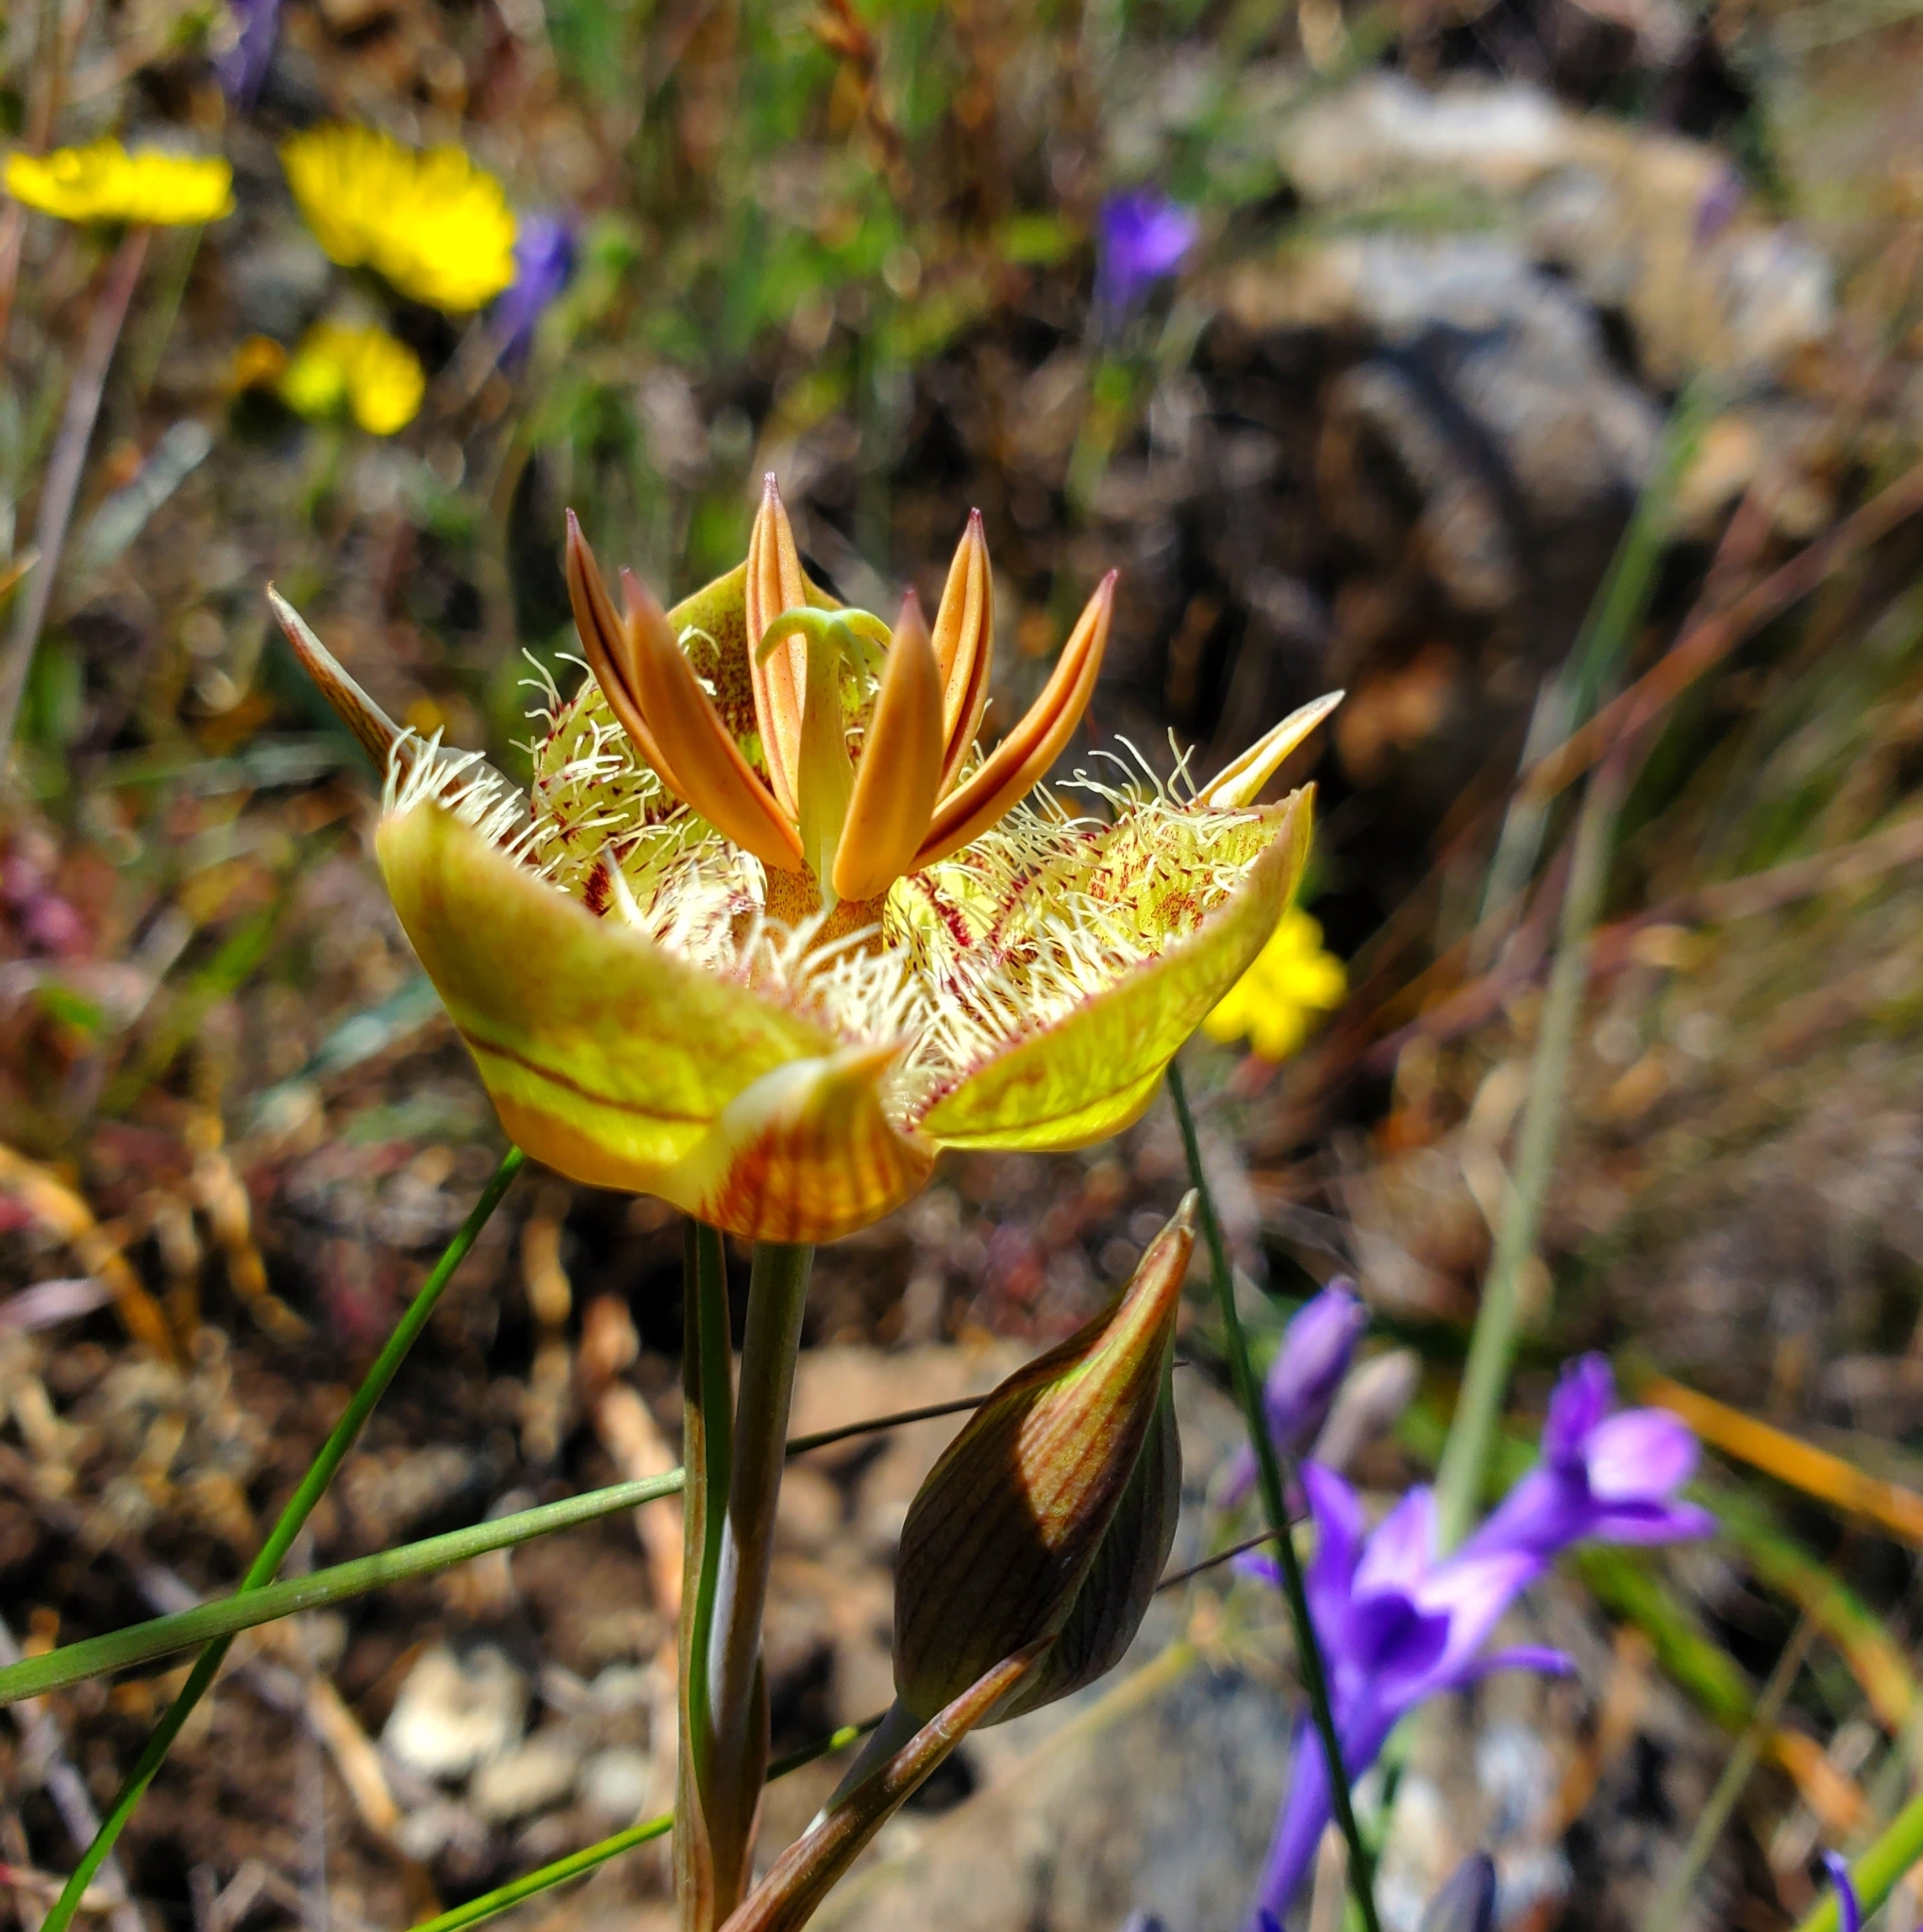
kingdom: Plantae
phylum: Tracheophyta
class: Liliopsida
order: Liliales
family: Liliaceae
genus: Calochortus
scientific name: Calochortus tiburonensis
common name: Tiburon mariposa-lily
